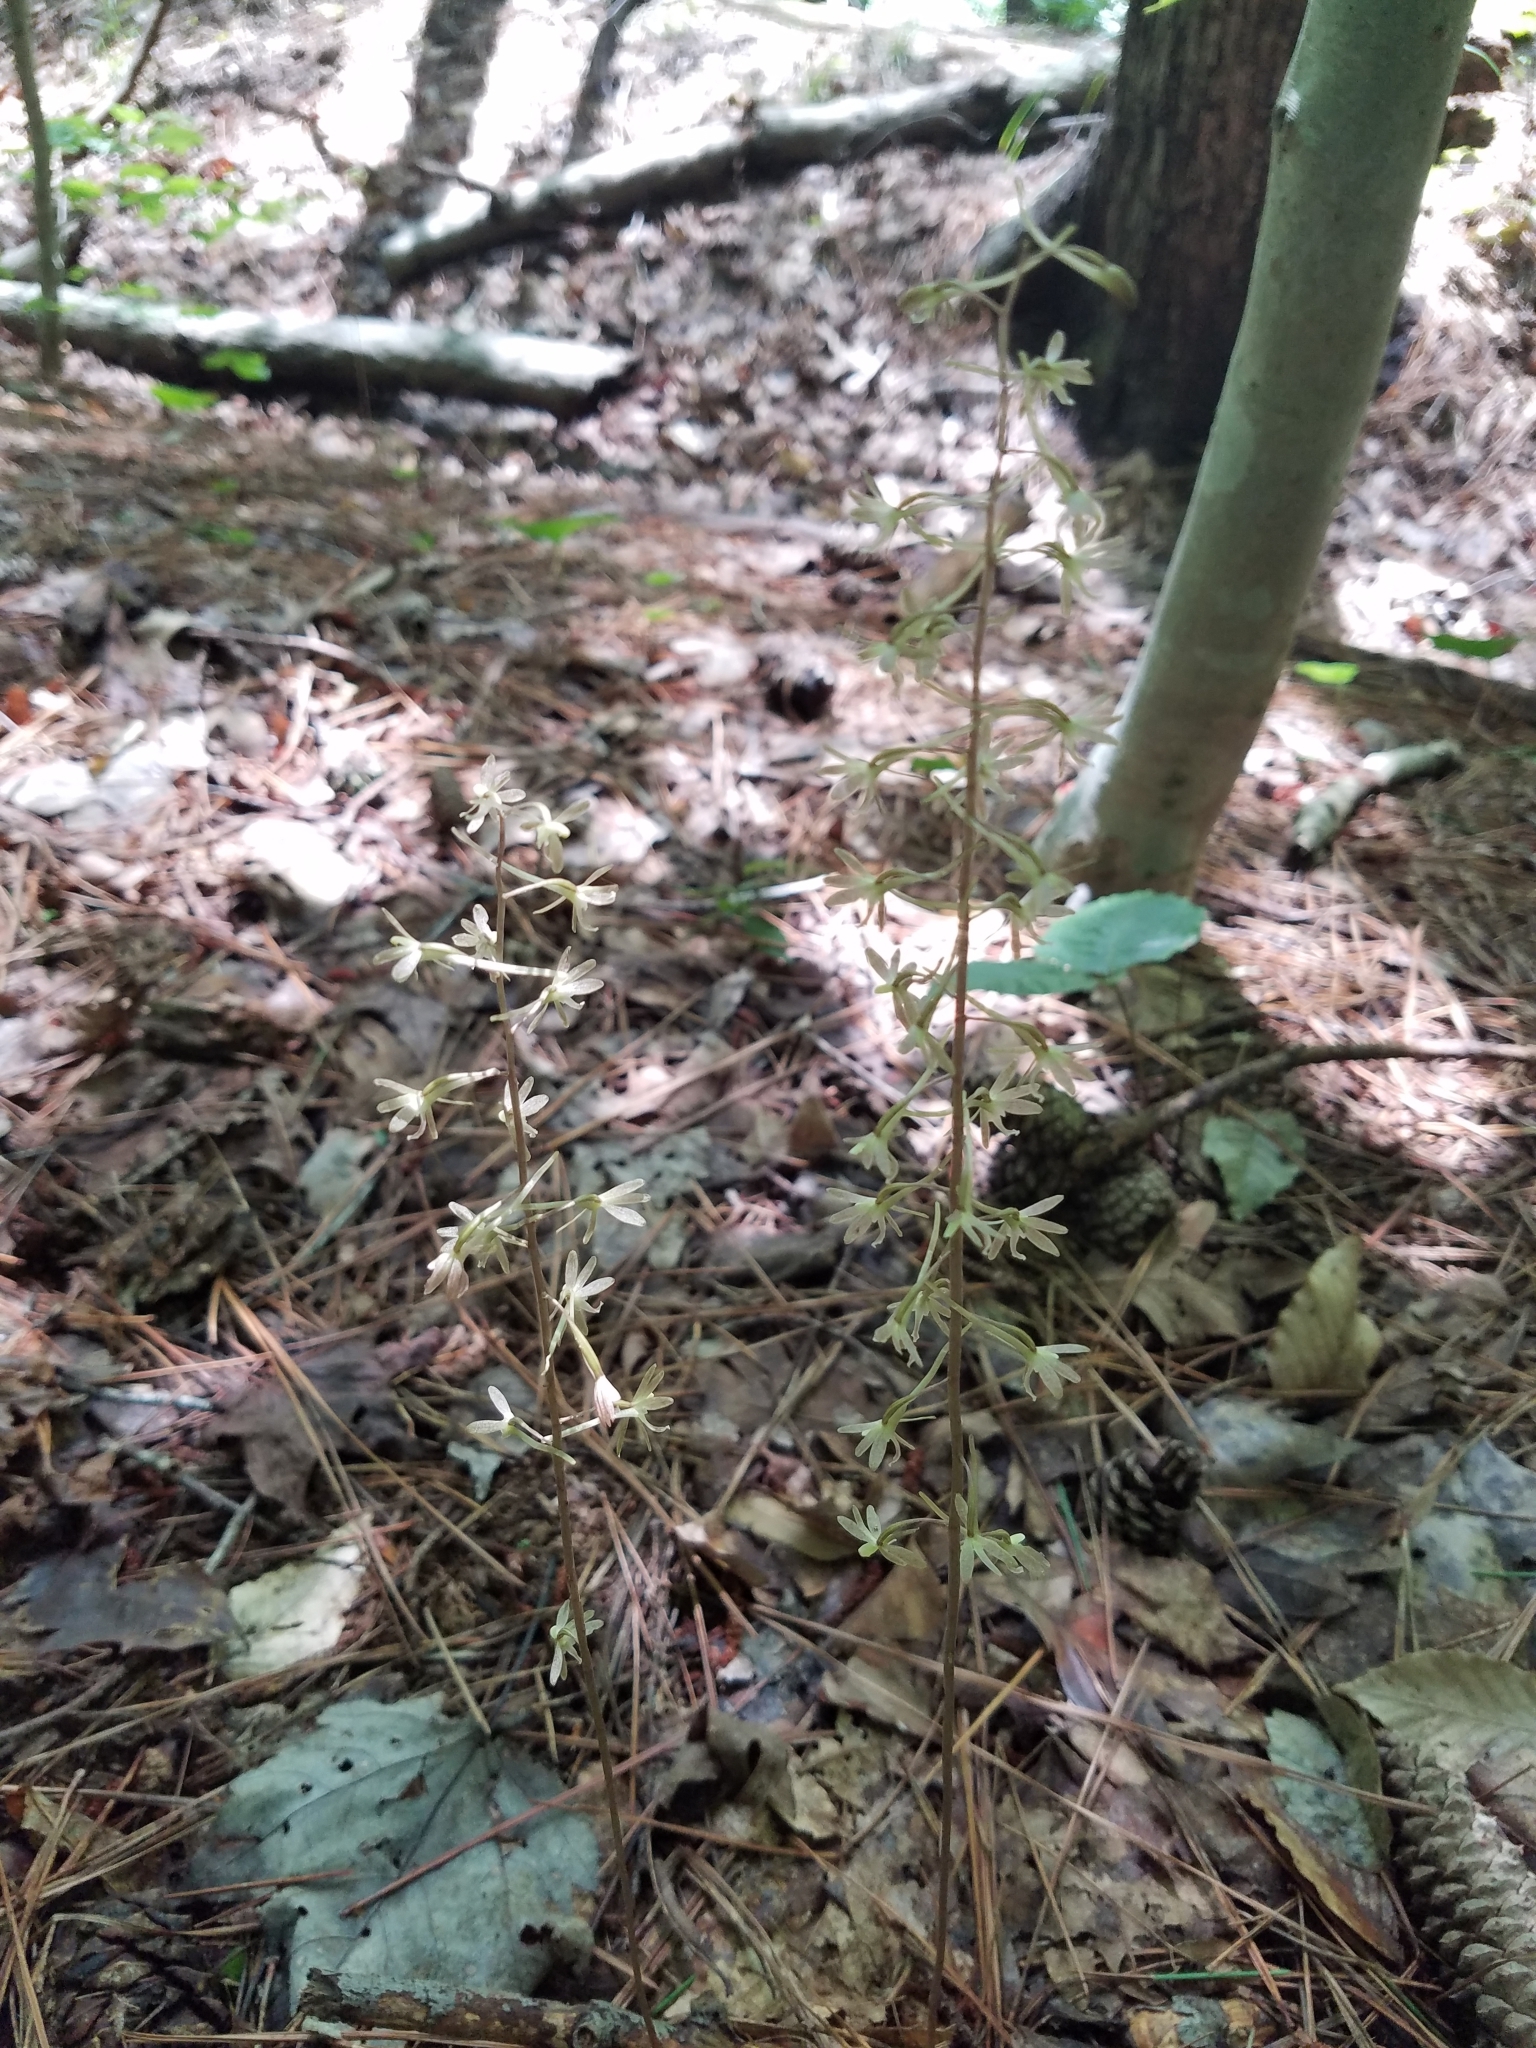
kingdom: Plantae
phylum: Tracheophyta
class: Liliopsida
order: Asparagales
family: Orchidaceae
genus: Tipularia
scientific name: Tipularia discolor
